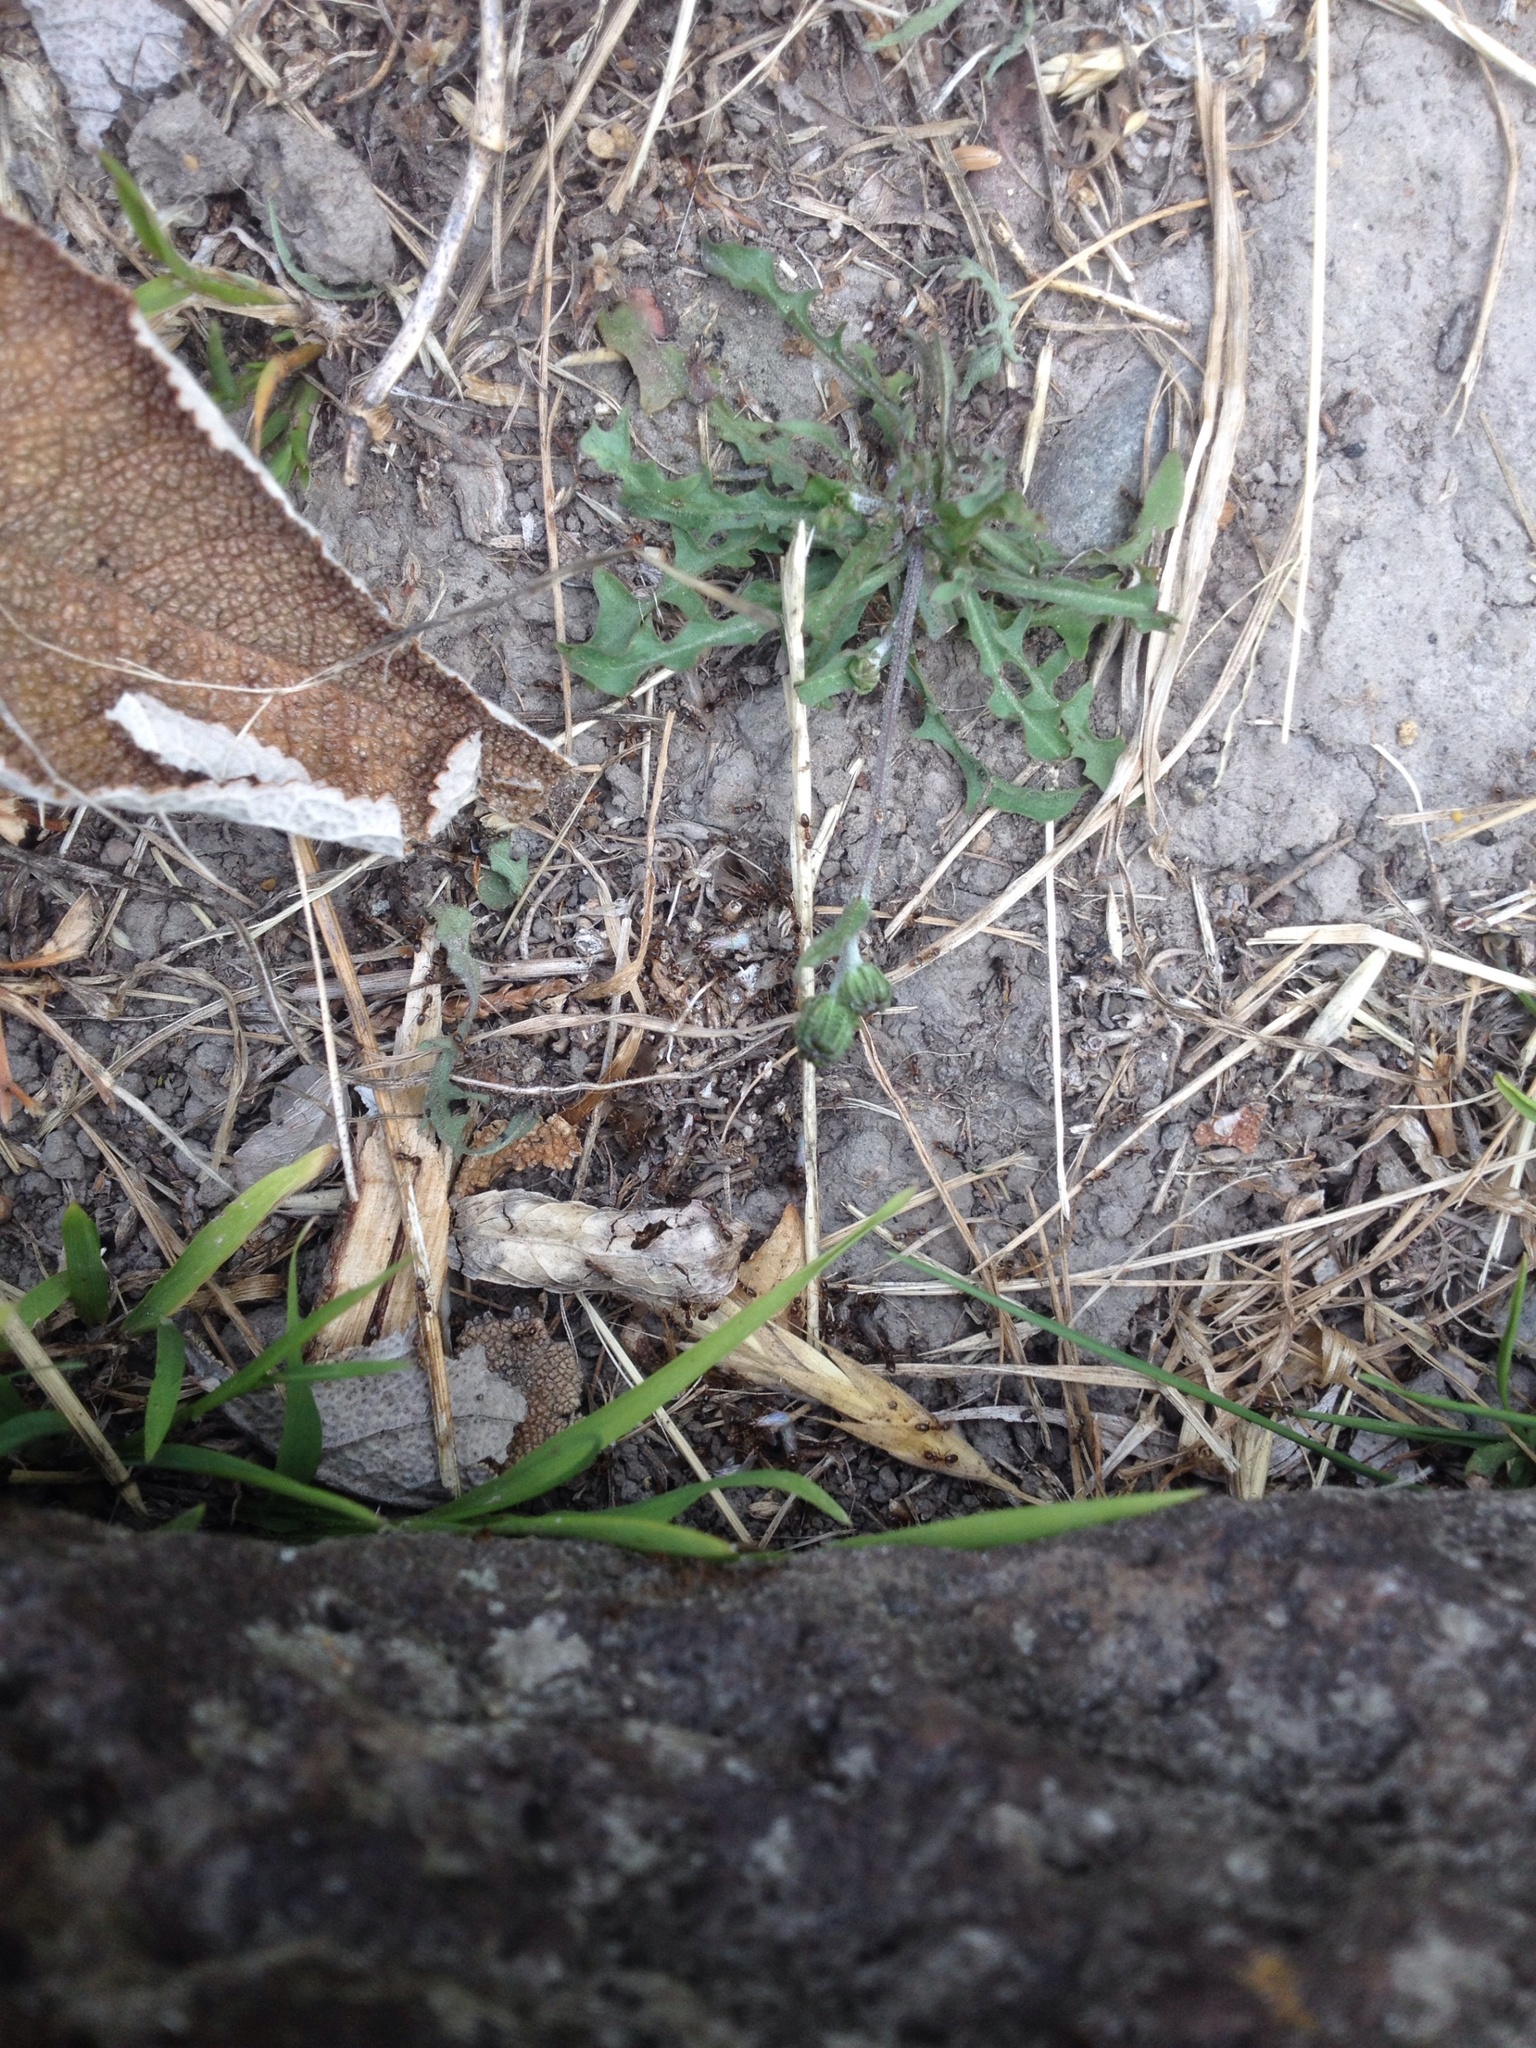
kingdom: Animalia
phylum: Arthropoda
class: Insecta
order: Hymenoptera
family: Formicidae
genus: Doleromyrma
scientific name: Doleromyrma darwiniana
